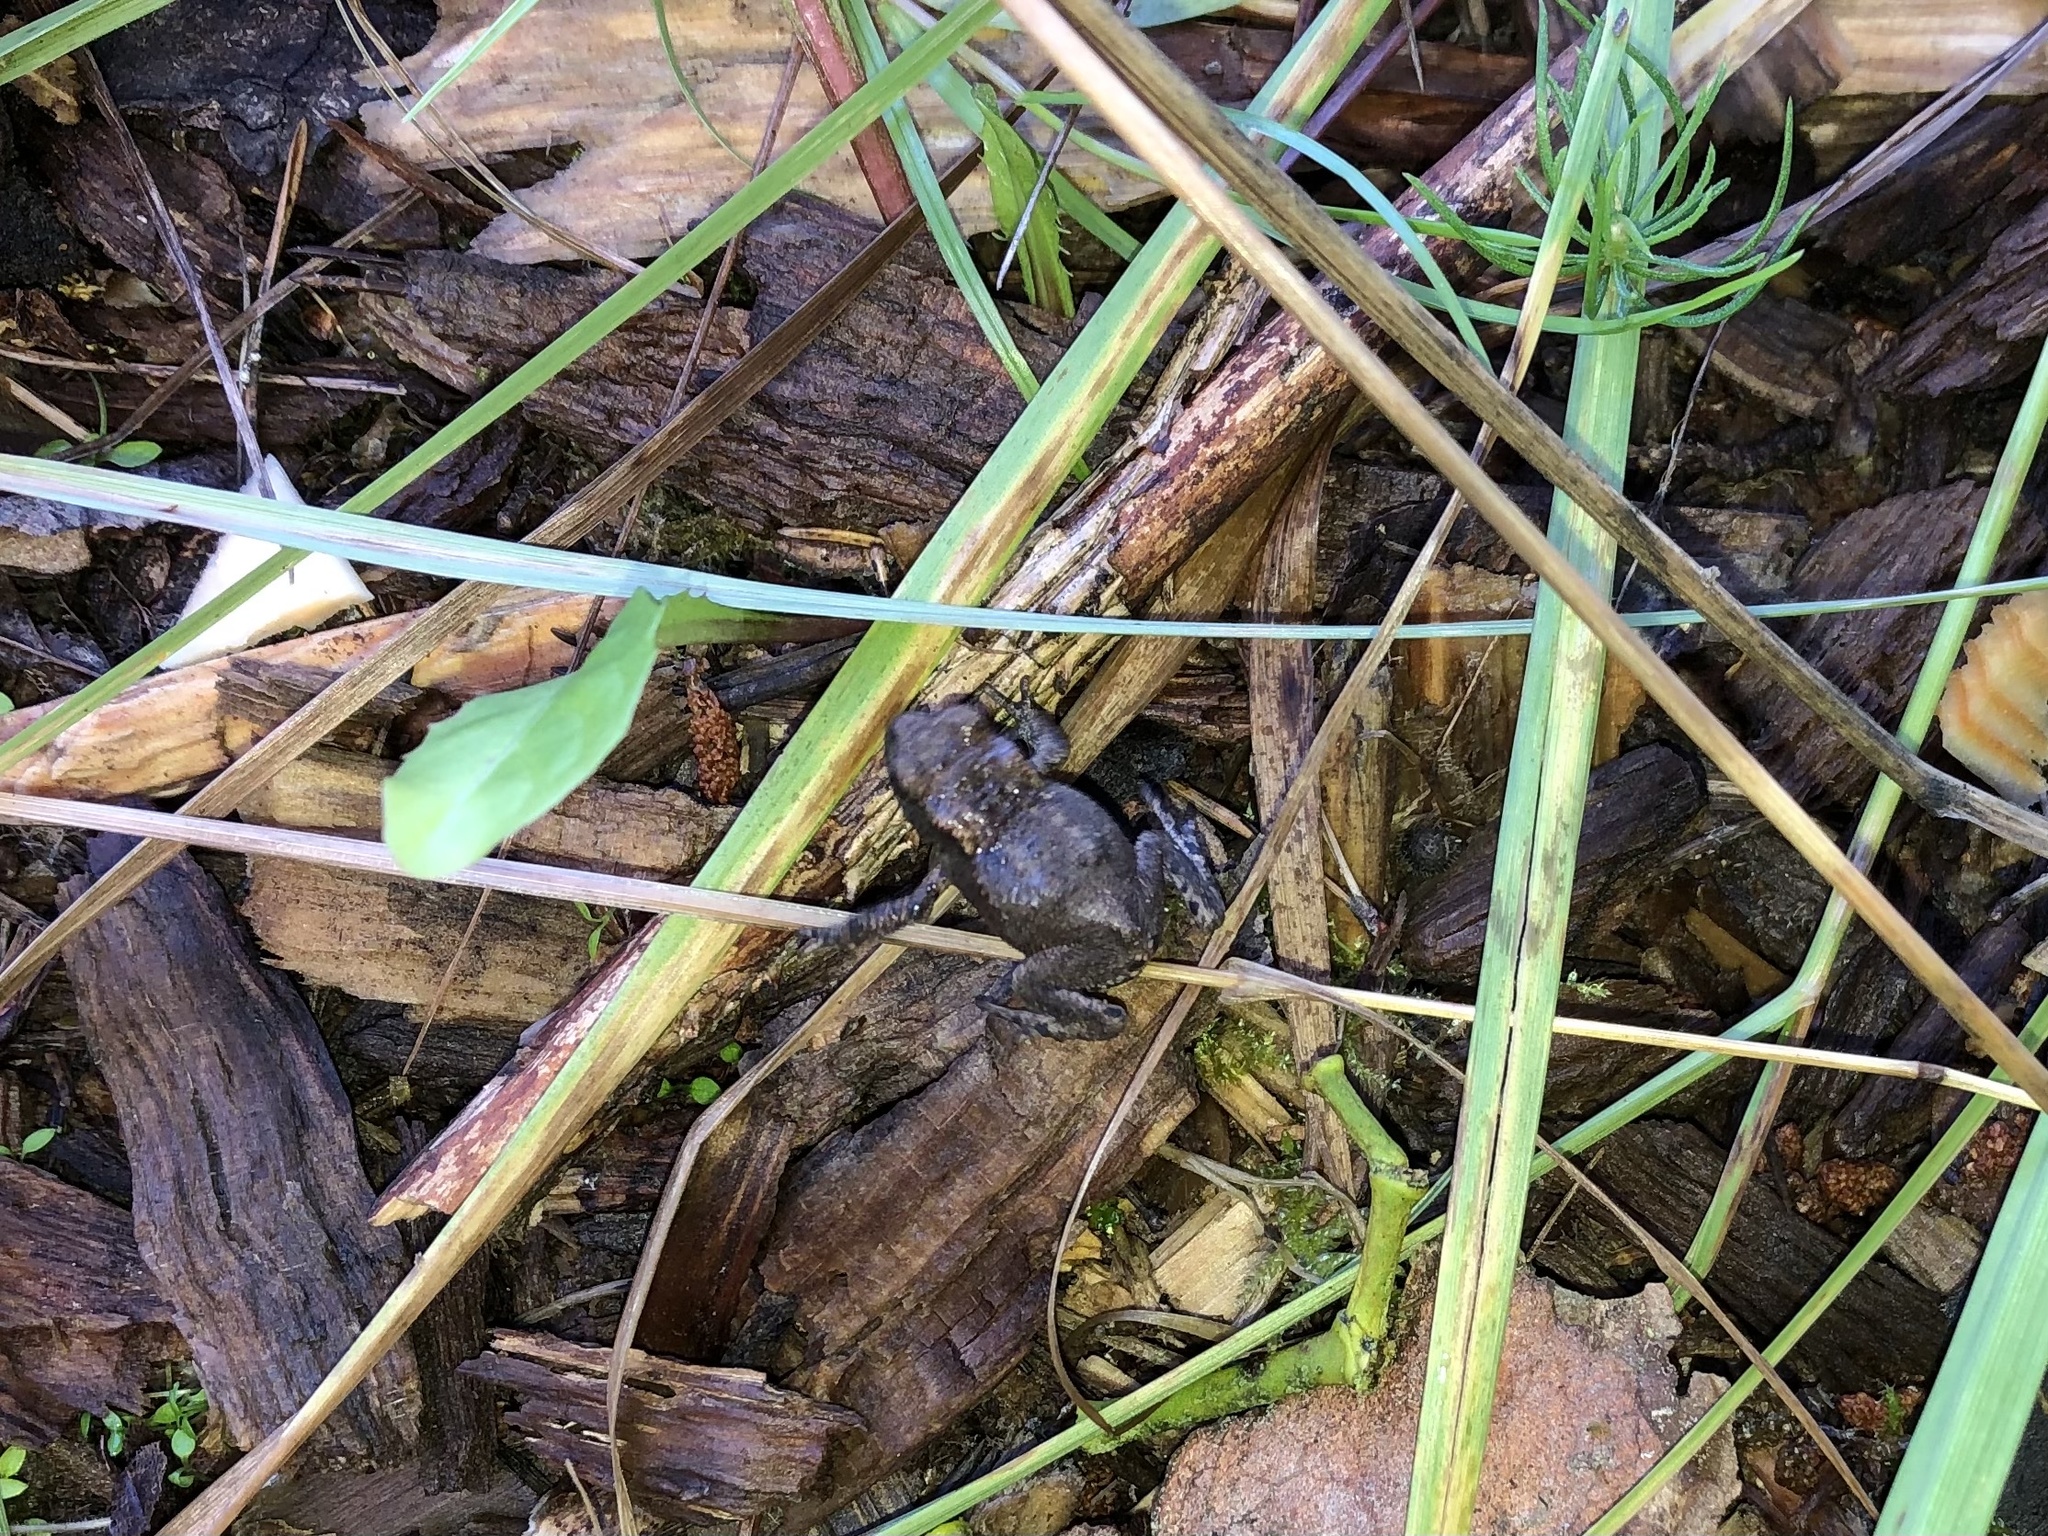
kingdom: Animalia
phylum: Chordata
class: Amphibia
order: Anura
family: Bufonidae
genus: Bufo
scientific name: Bufo bufo
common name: Common toad
